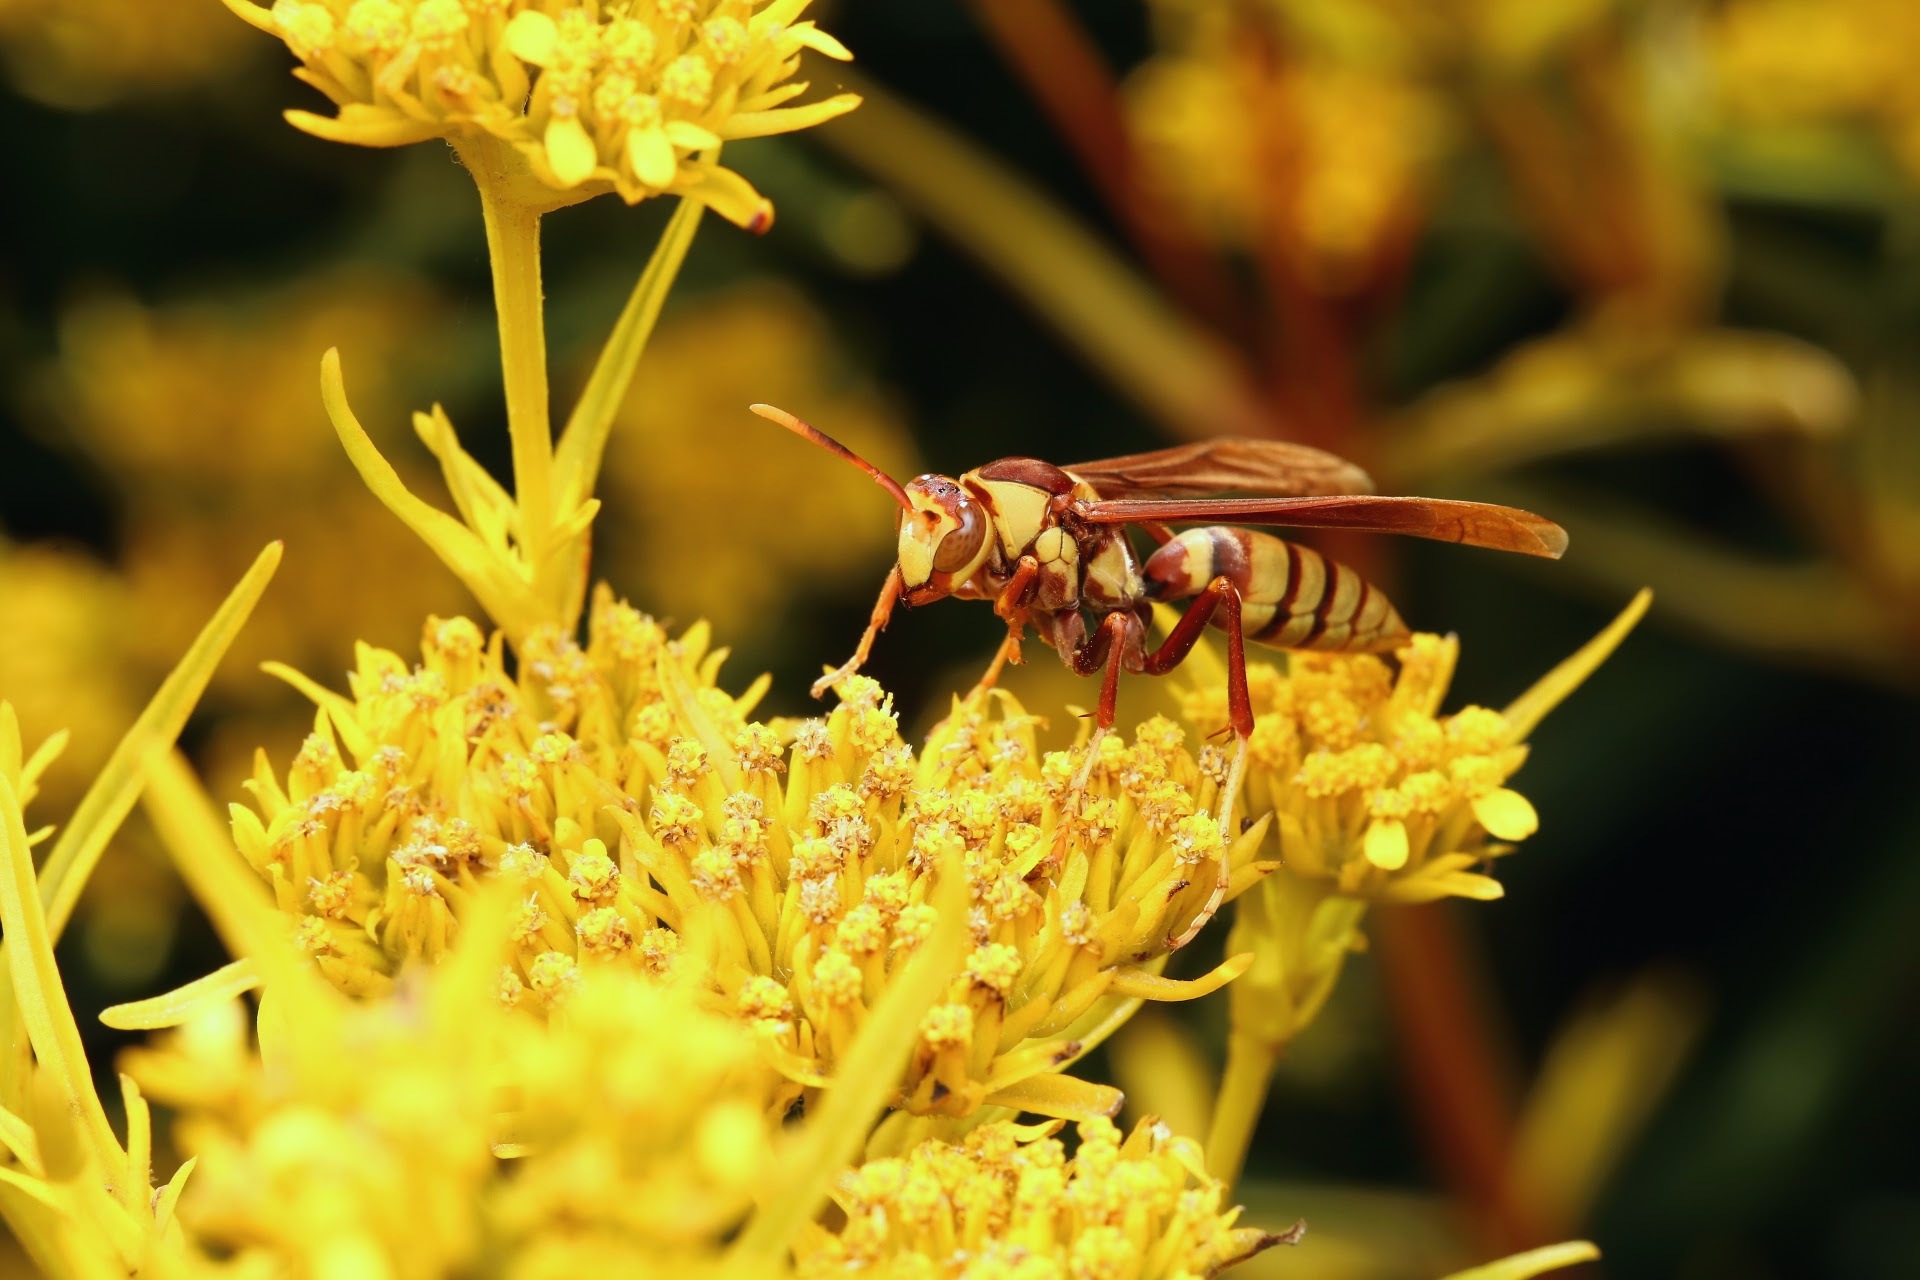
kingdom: Animalia
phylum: Arthropoda
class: Insecta
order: Hymenoptera
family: Eumenidae
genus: Polistes
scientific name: Polistes major
